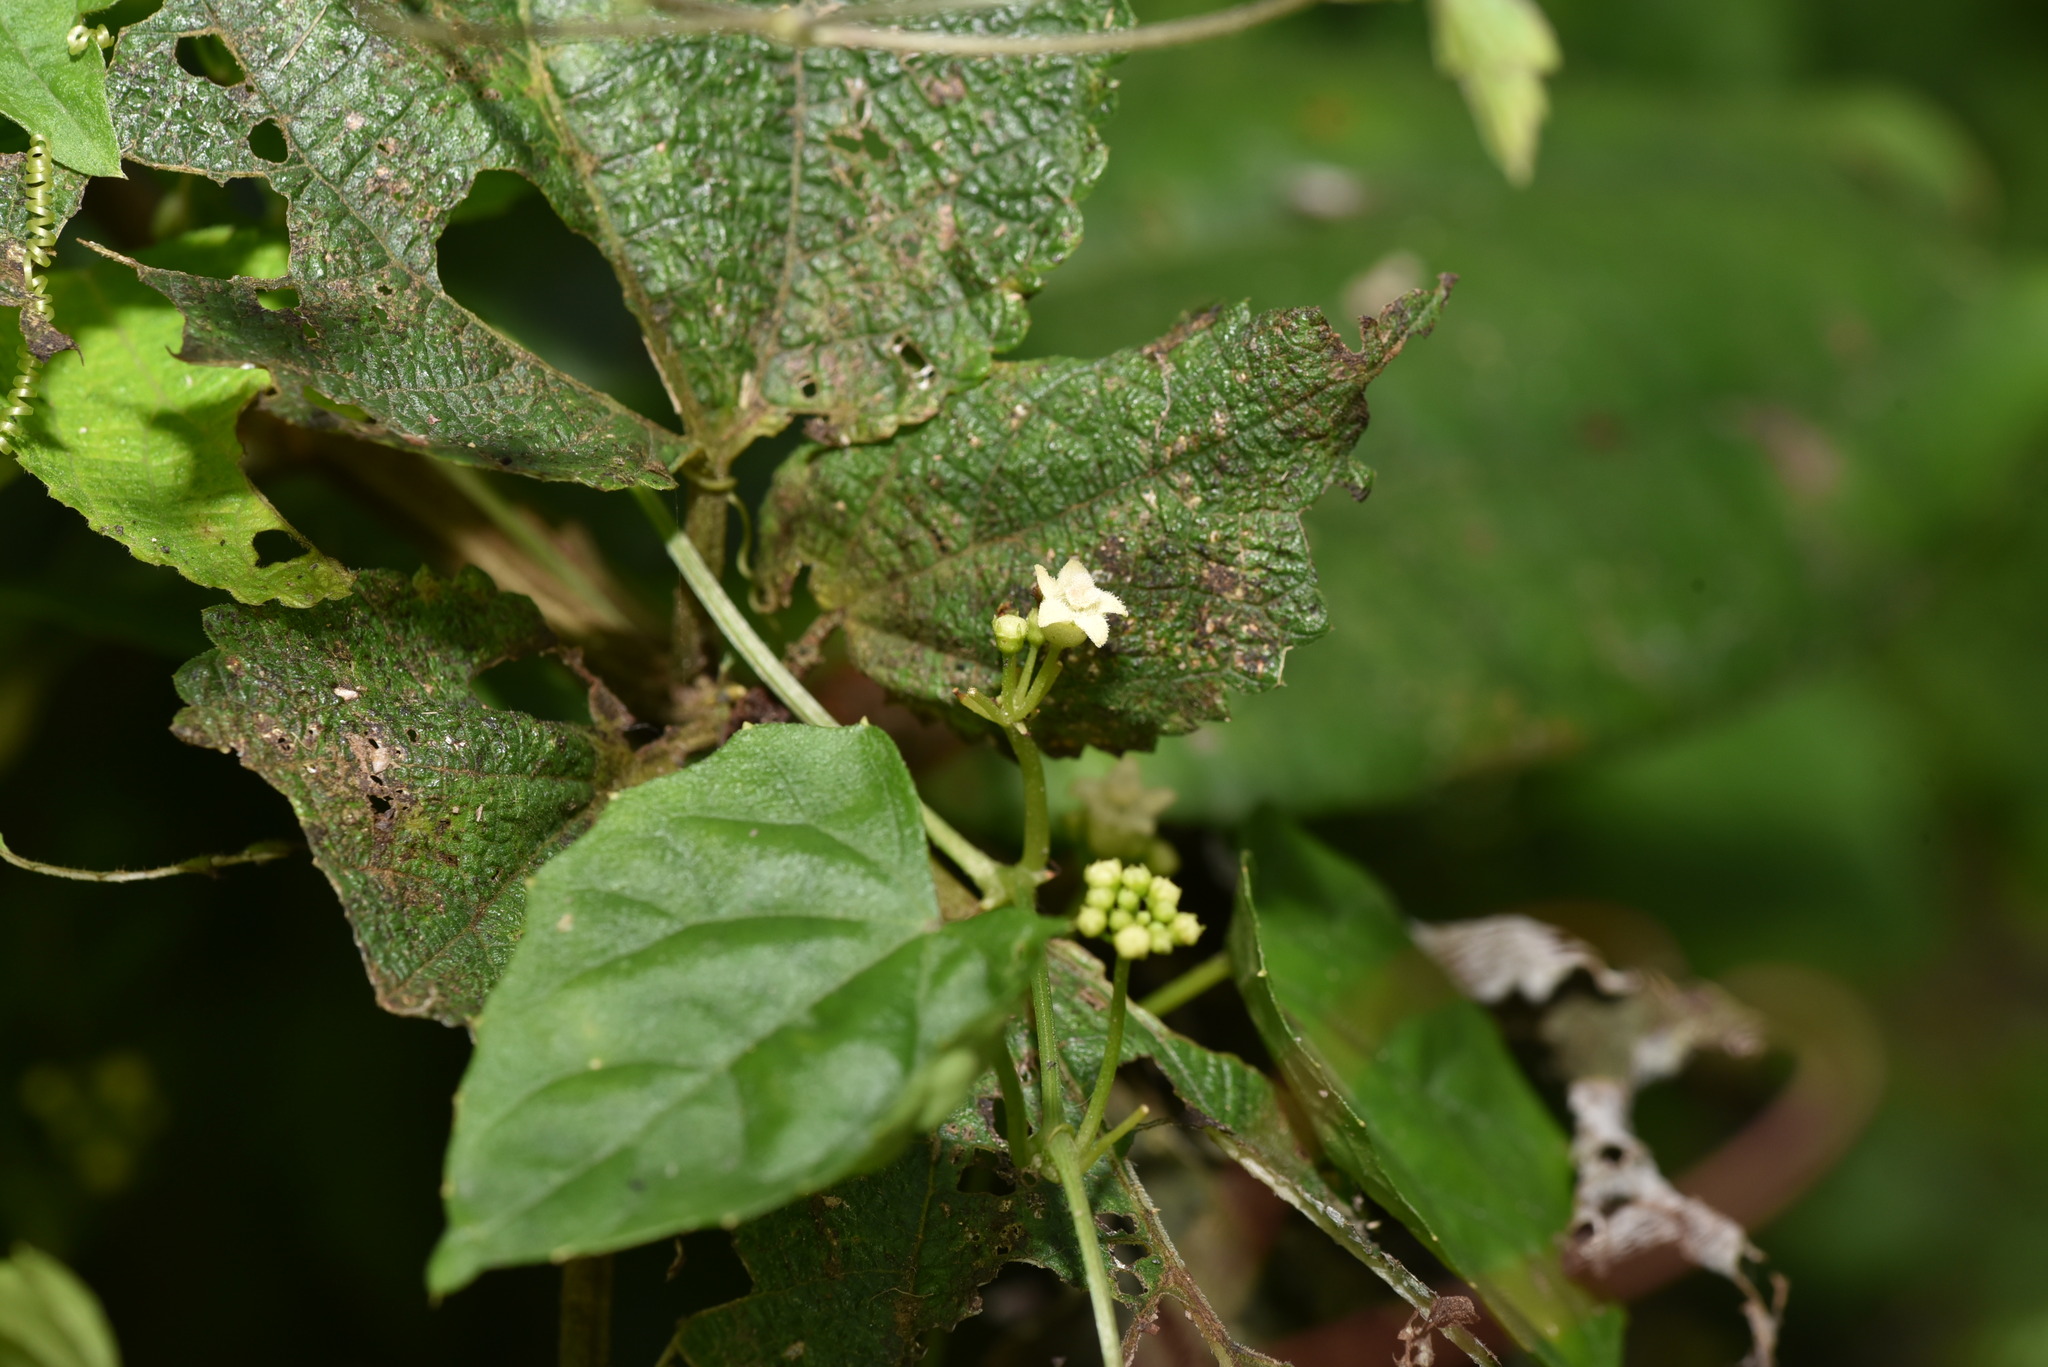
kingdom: Plantae
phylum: Tracheophyta
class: Magnoliopsida
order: Cucurbitales
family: Cucurbitaceae
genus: Zehneria
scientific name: Zehneria guamensis
